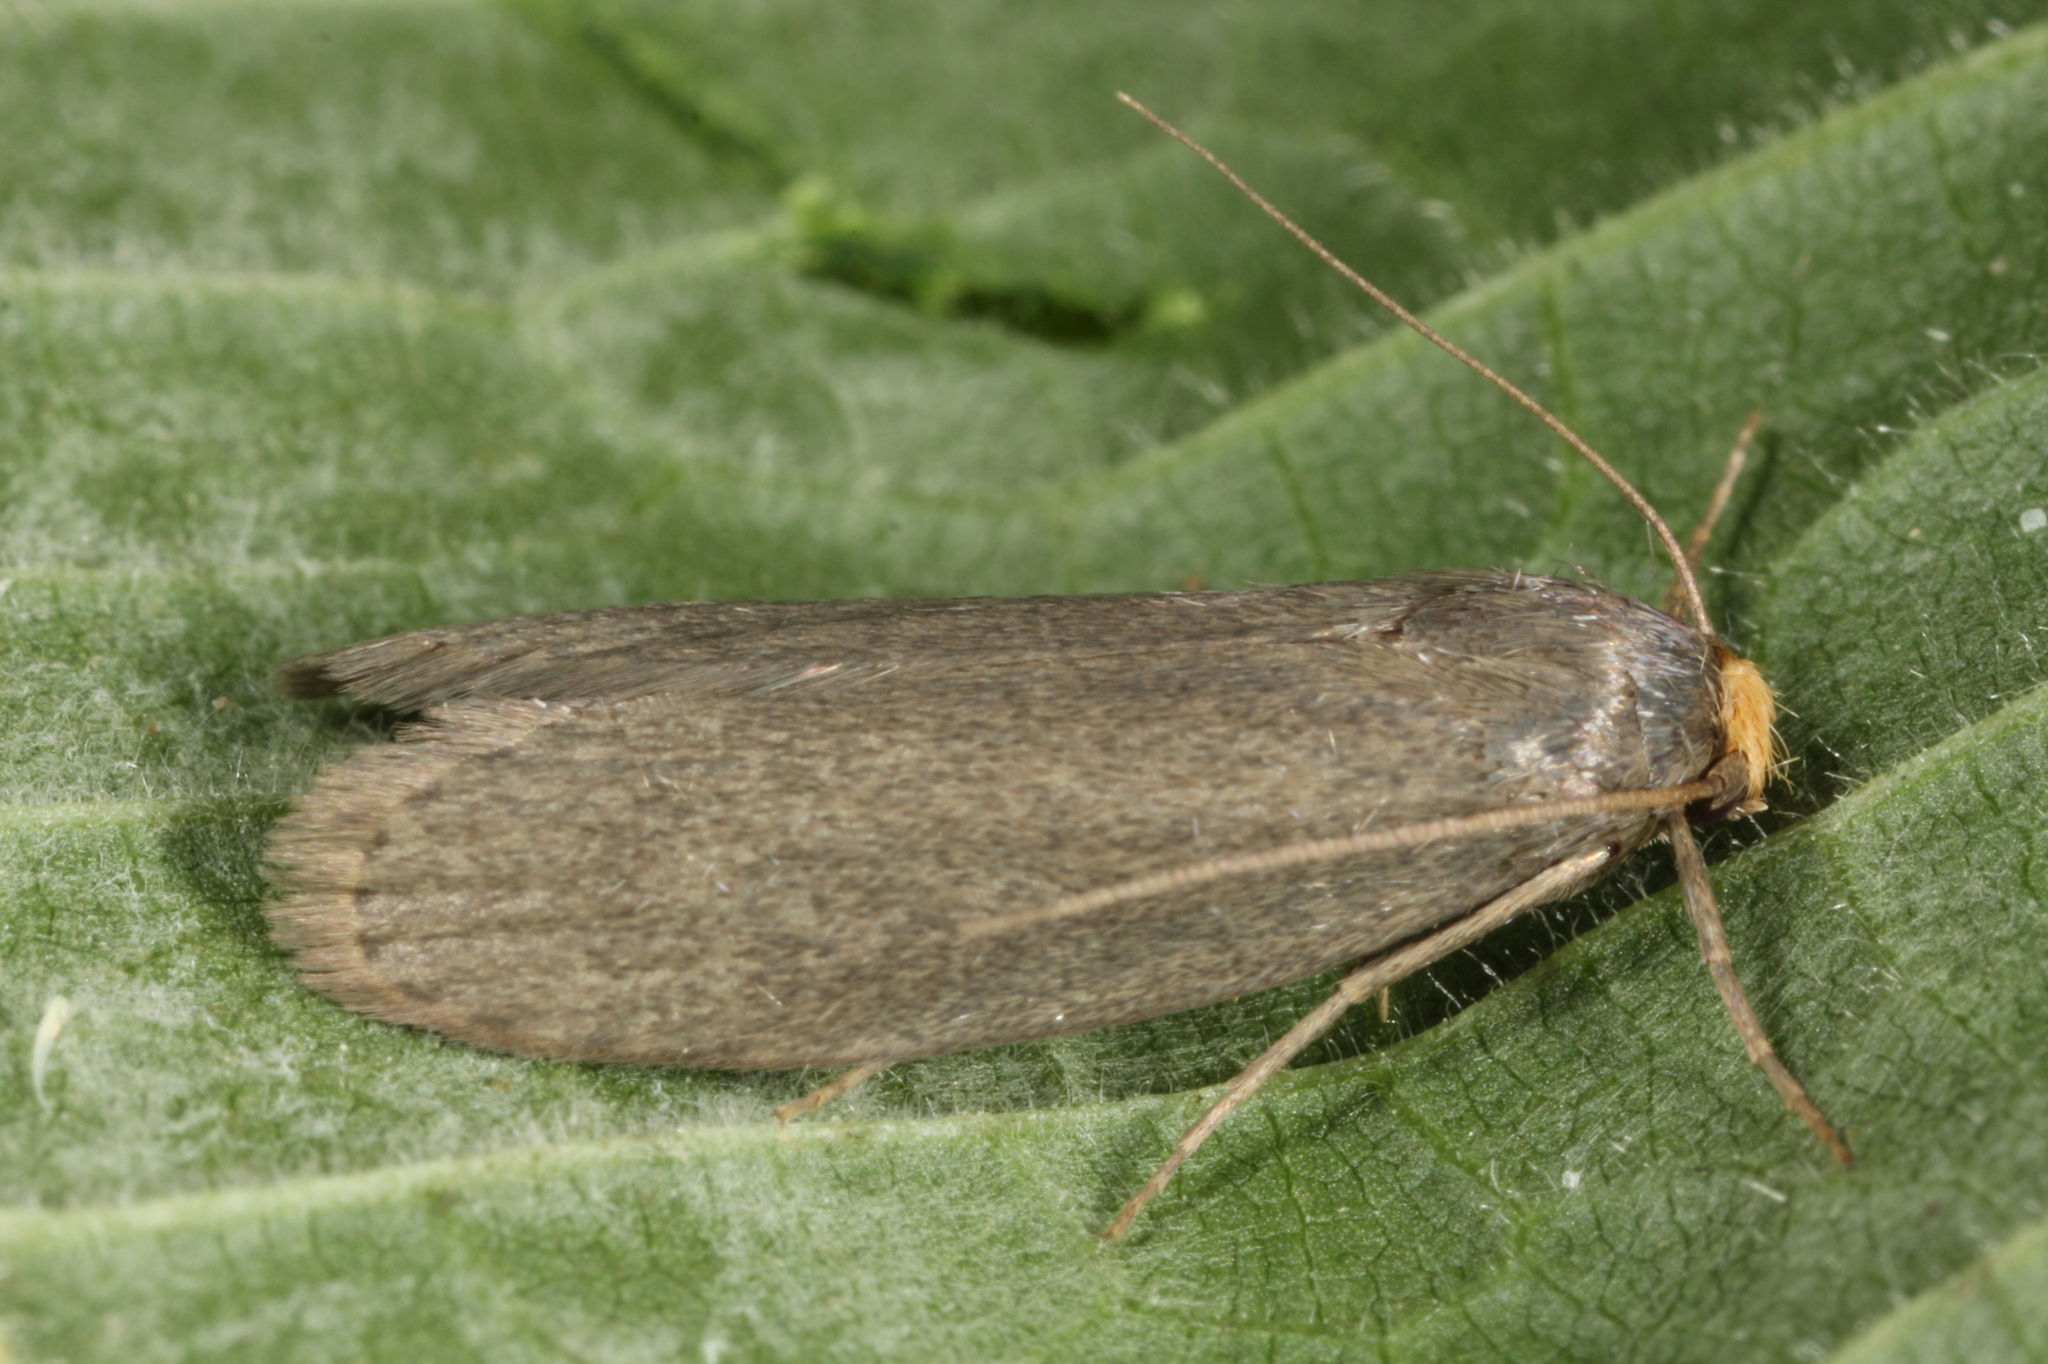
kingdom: Animalia
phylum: Arthropoda
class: Insecta
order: Lepidoptera
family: Pyralidae
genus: Achroia
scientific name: Achroia grisella
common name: Lesser wax moth
